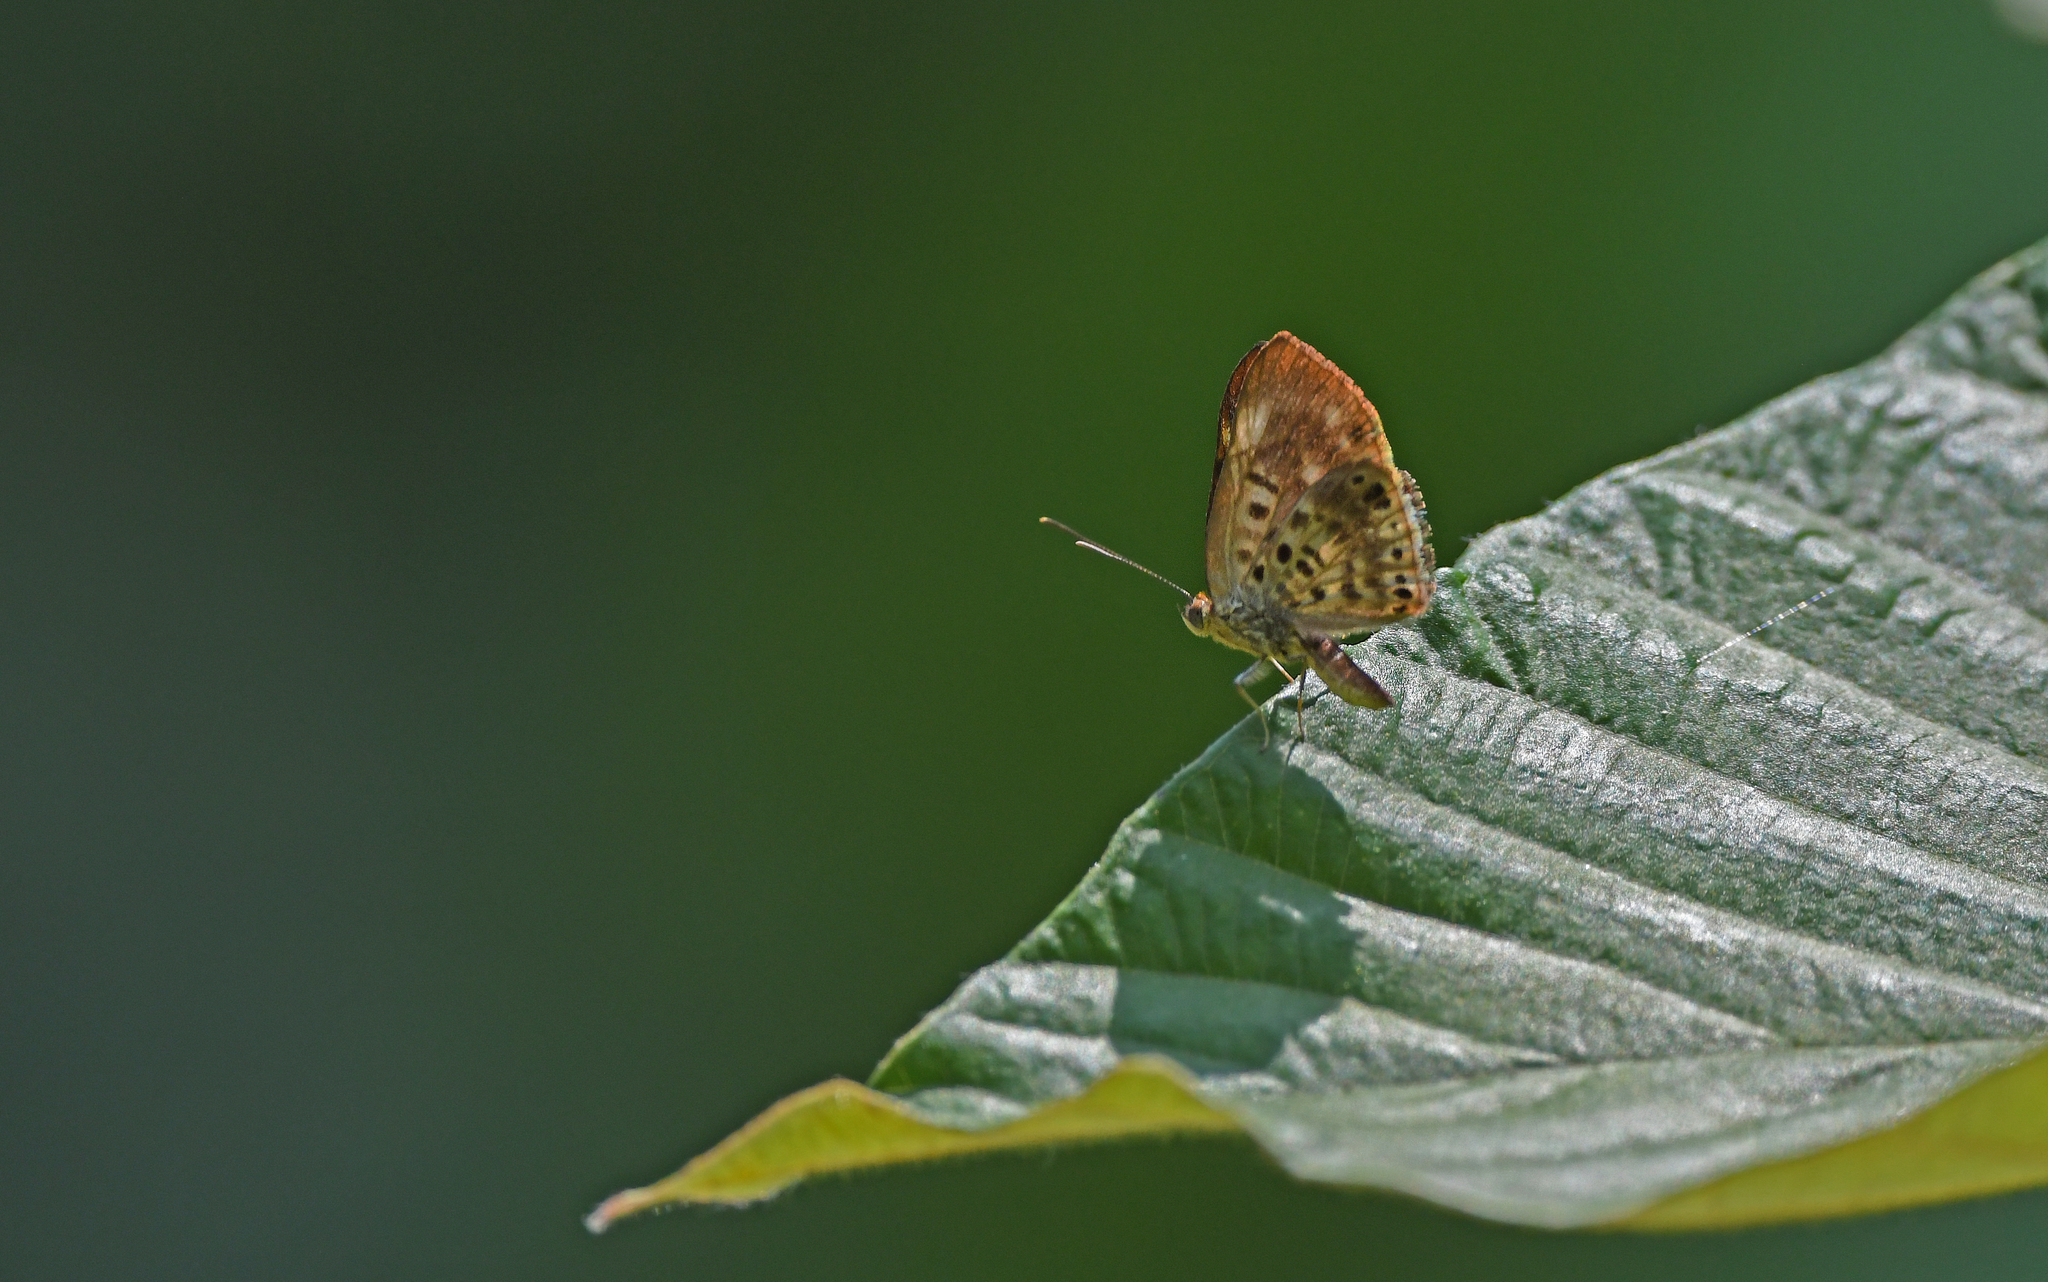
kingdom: Animalia
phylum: Arthropoda
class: Insecta
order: Lepidoptera
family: Riodinidae
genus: Nymula
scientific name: Nymula abaris
